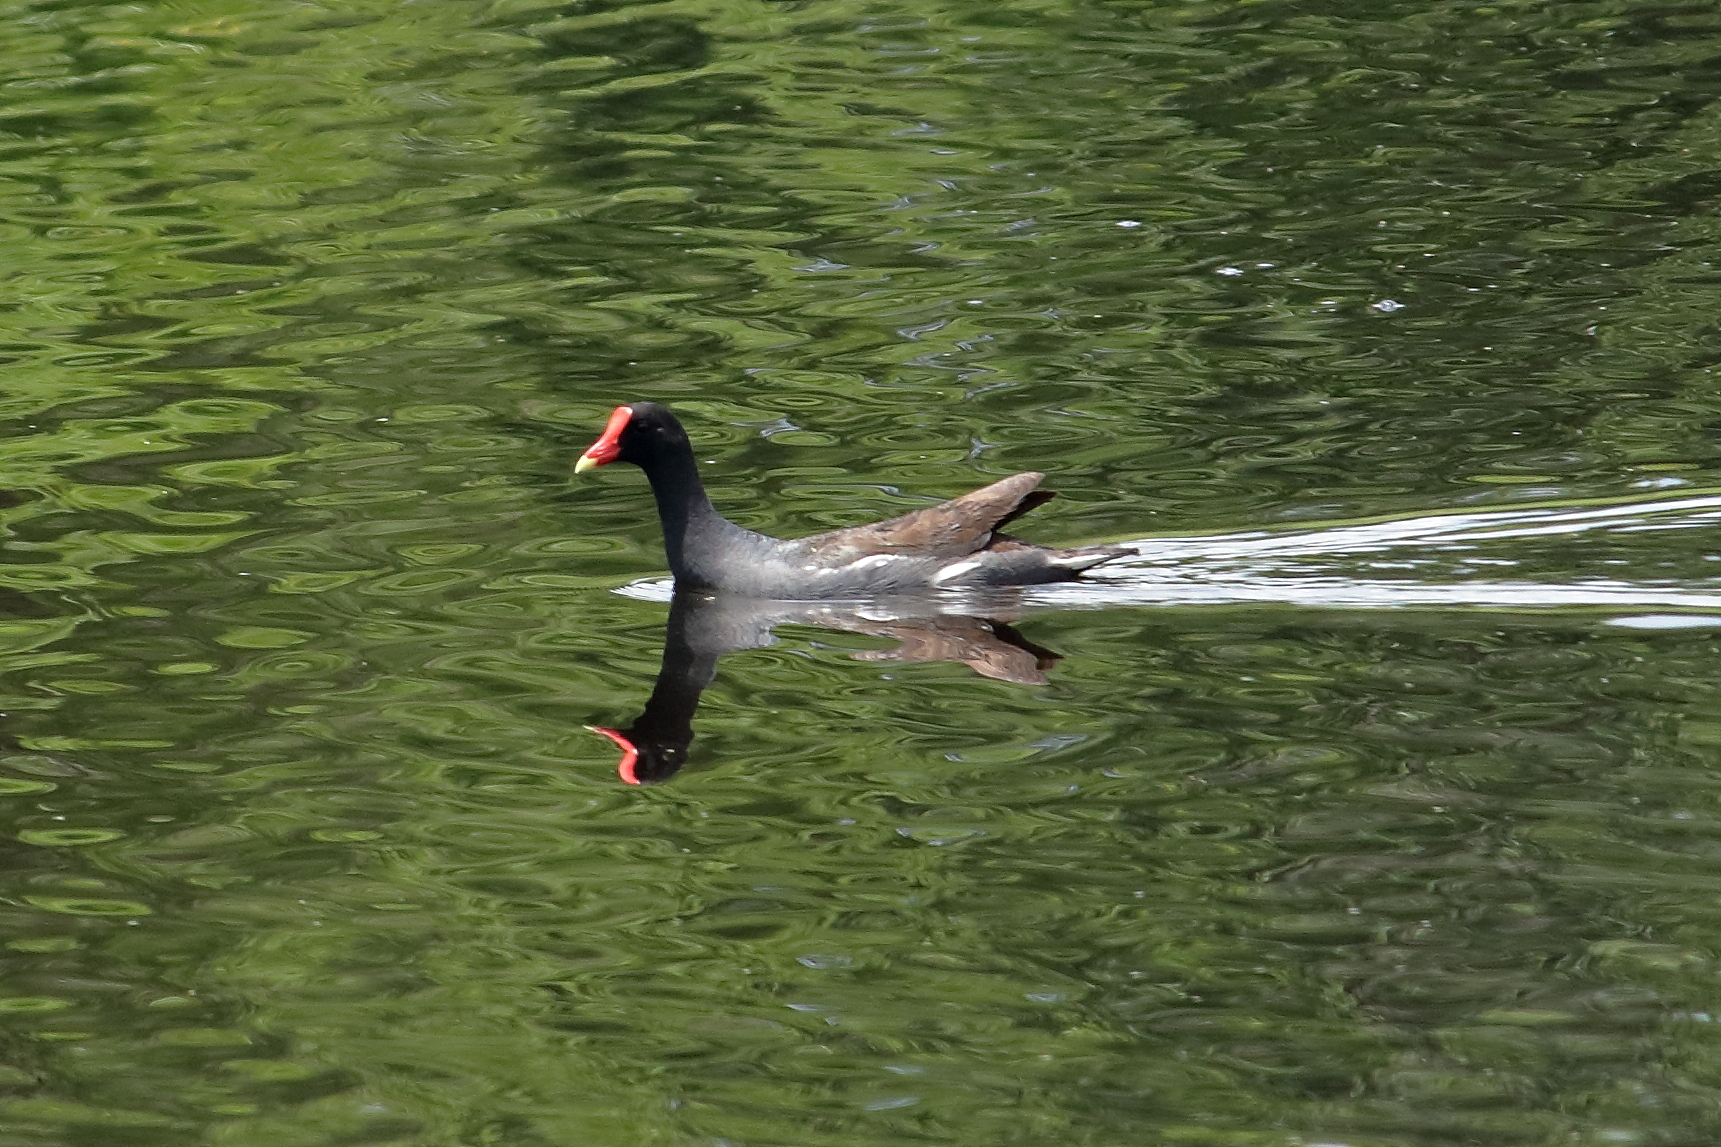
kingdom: Animalia
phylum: Chordata
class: Aves
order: Gruiformes
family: Rallidae
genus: Gallinula
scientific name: Gallinula chloropus
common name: Common moorhen
